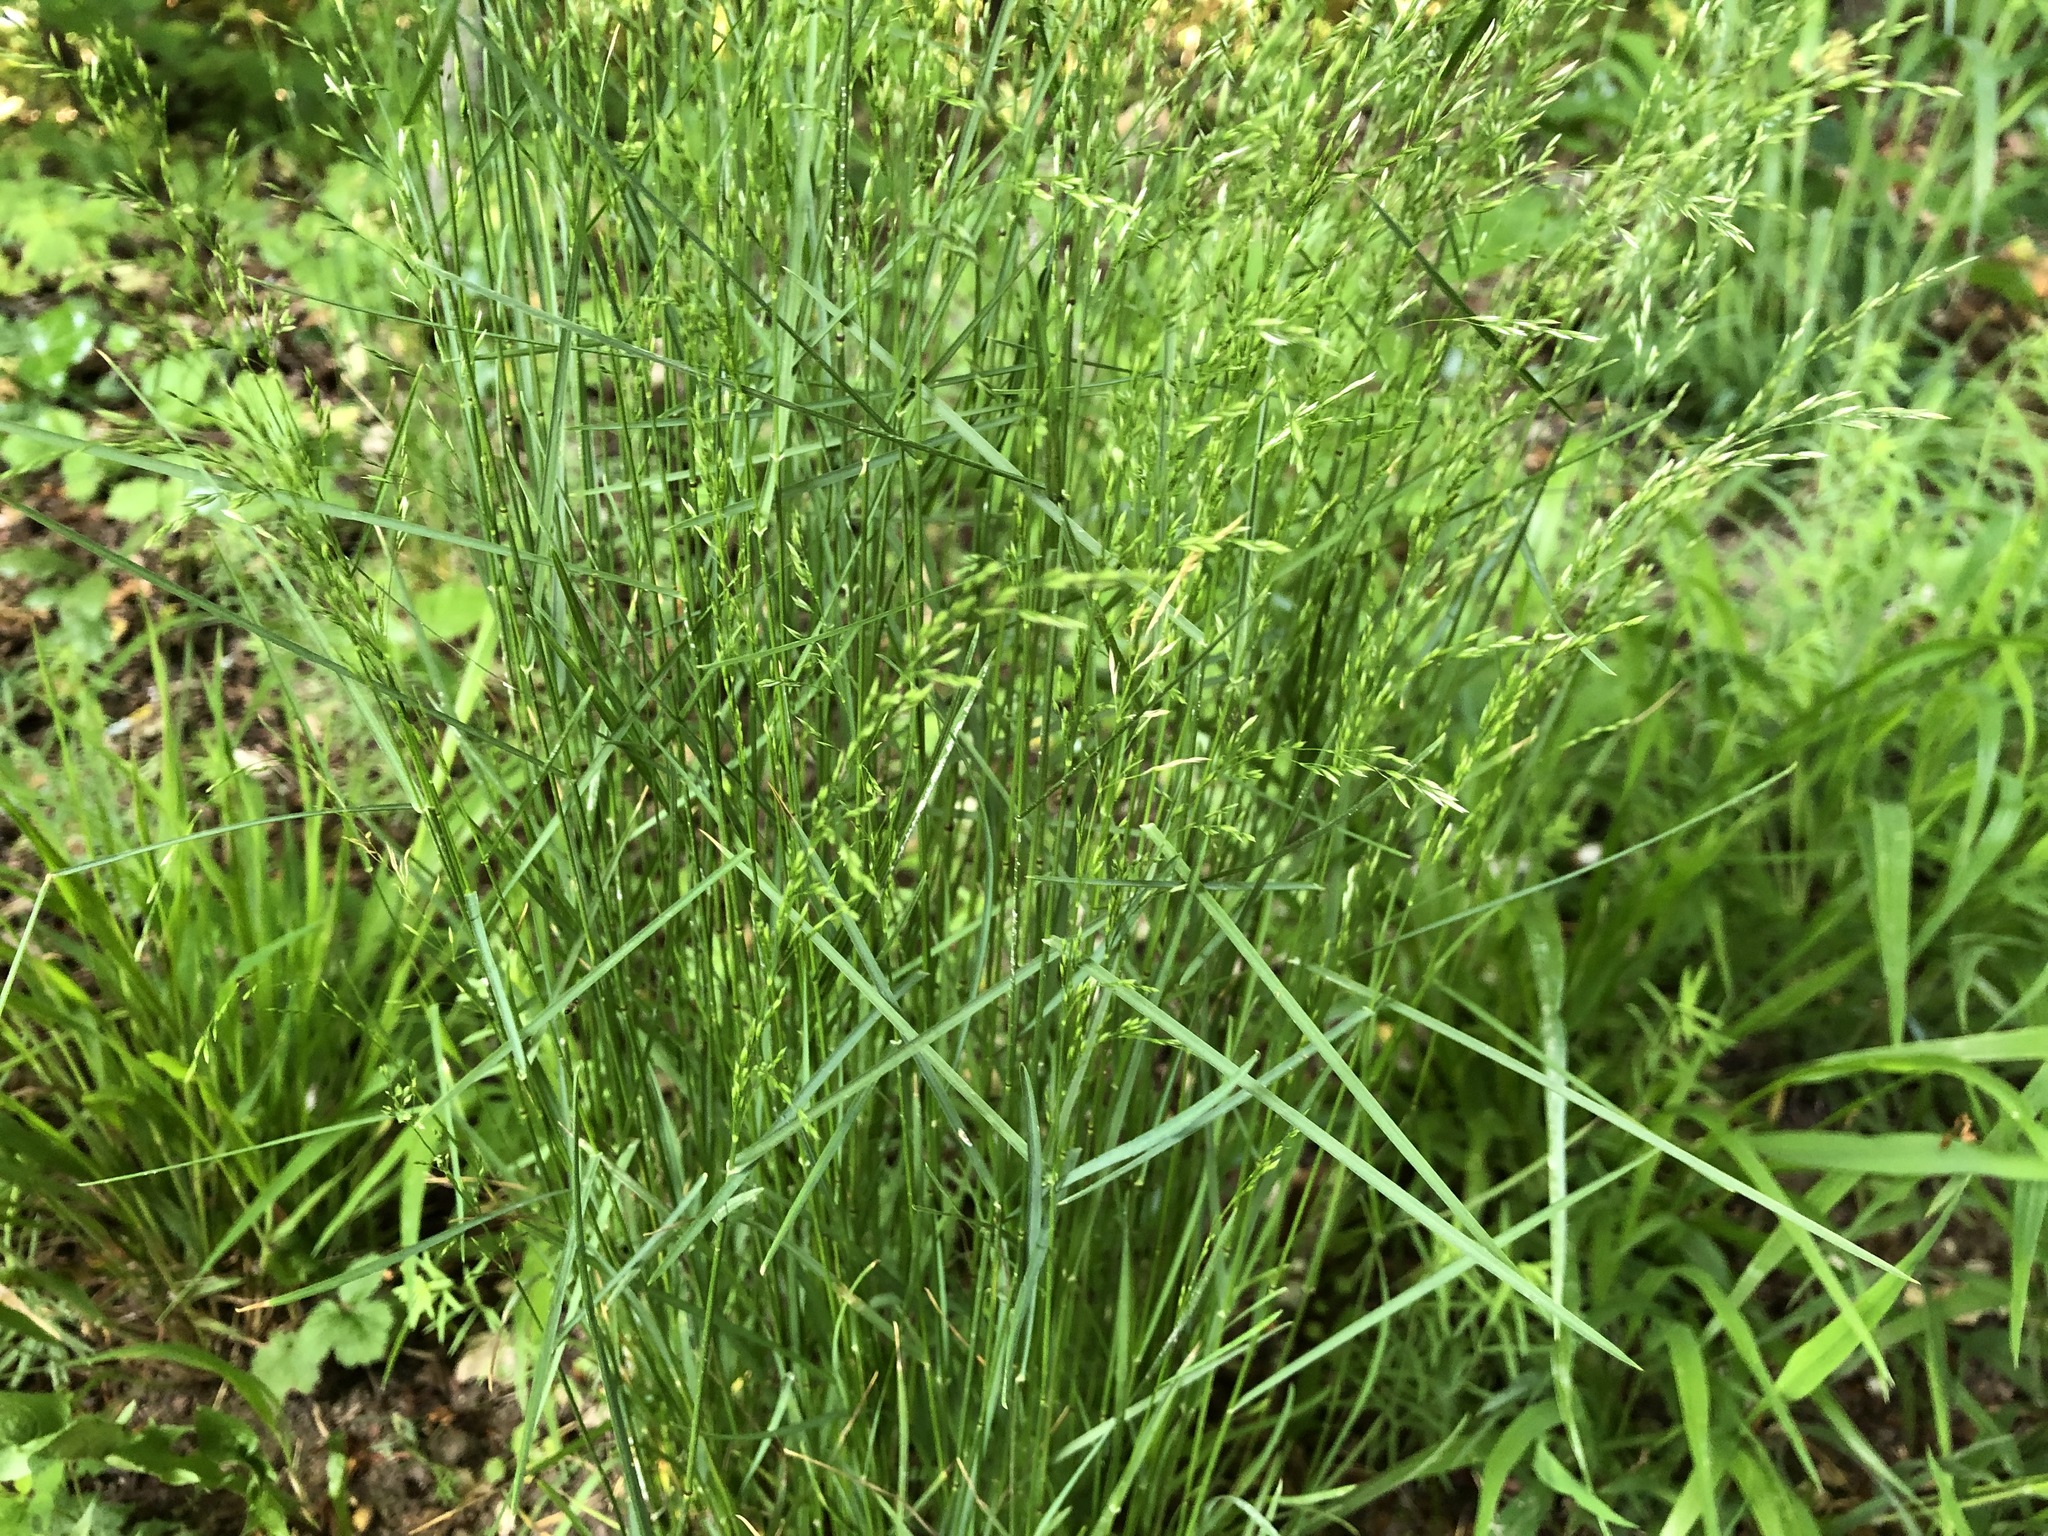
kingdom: Plantae
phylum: Tracheophyta
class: Liliopsida
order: Poales
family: Poaceae
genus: Poa
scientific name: Poa nemoralis
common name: Wood bluegrass
